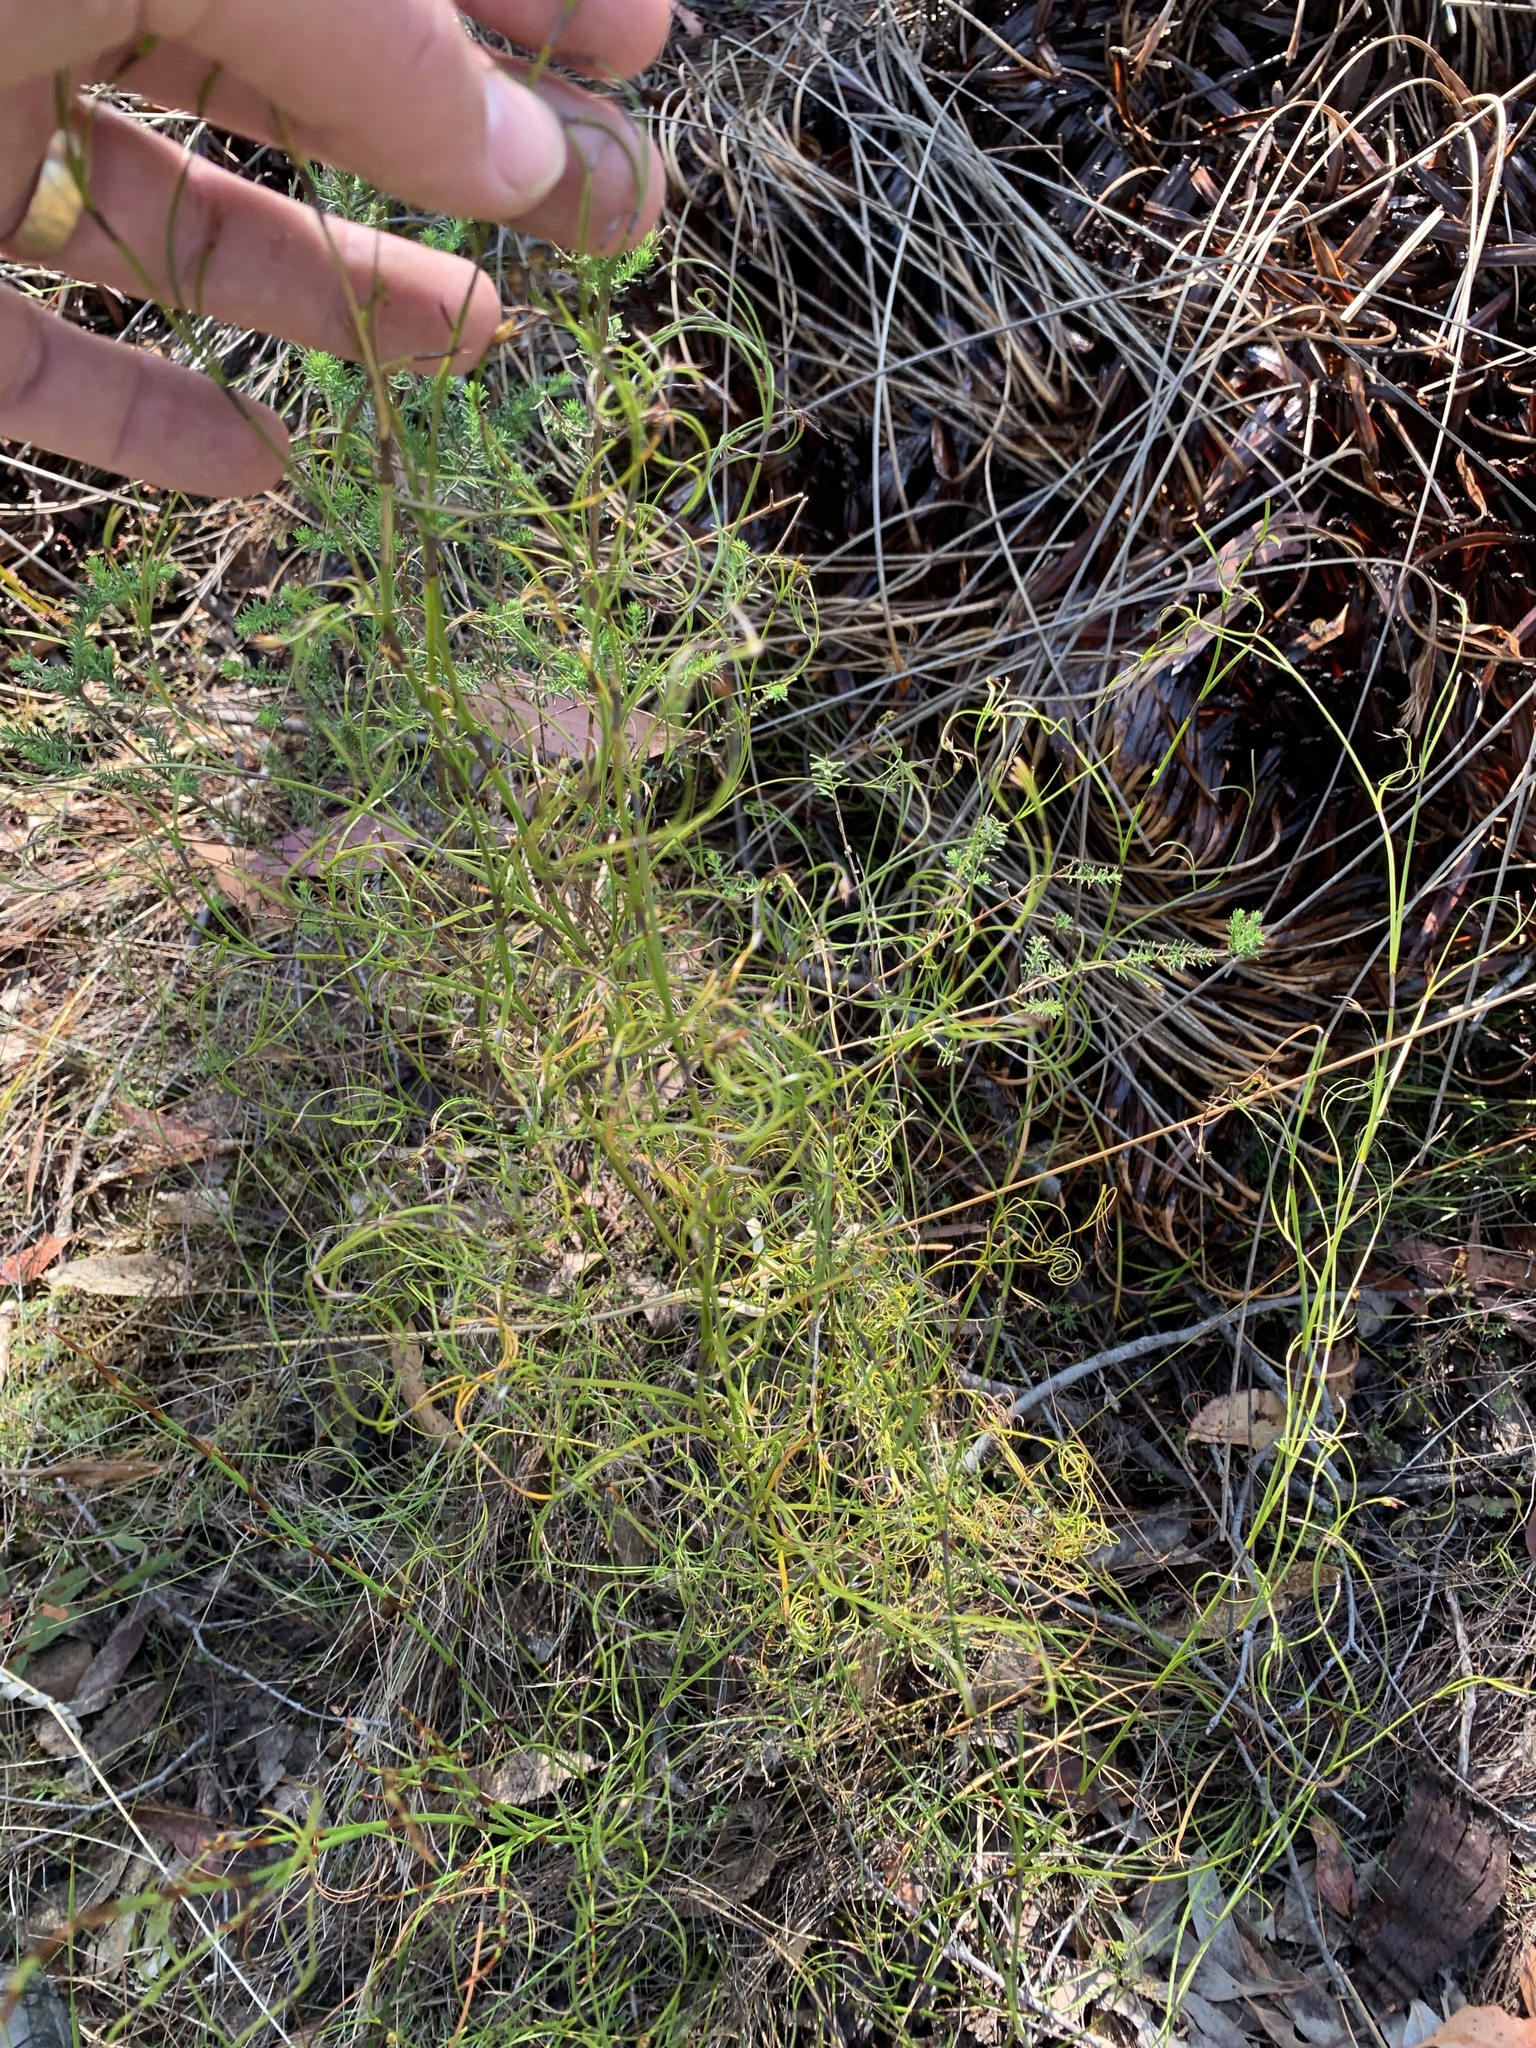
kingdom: Plantae
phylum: Tracheophyta
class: Liliopsida
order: Poales
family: Cyperaceae
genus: Caustis
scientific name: Caustis flexuosa
